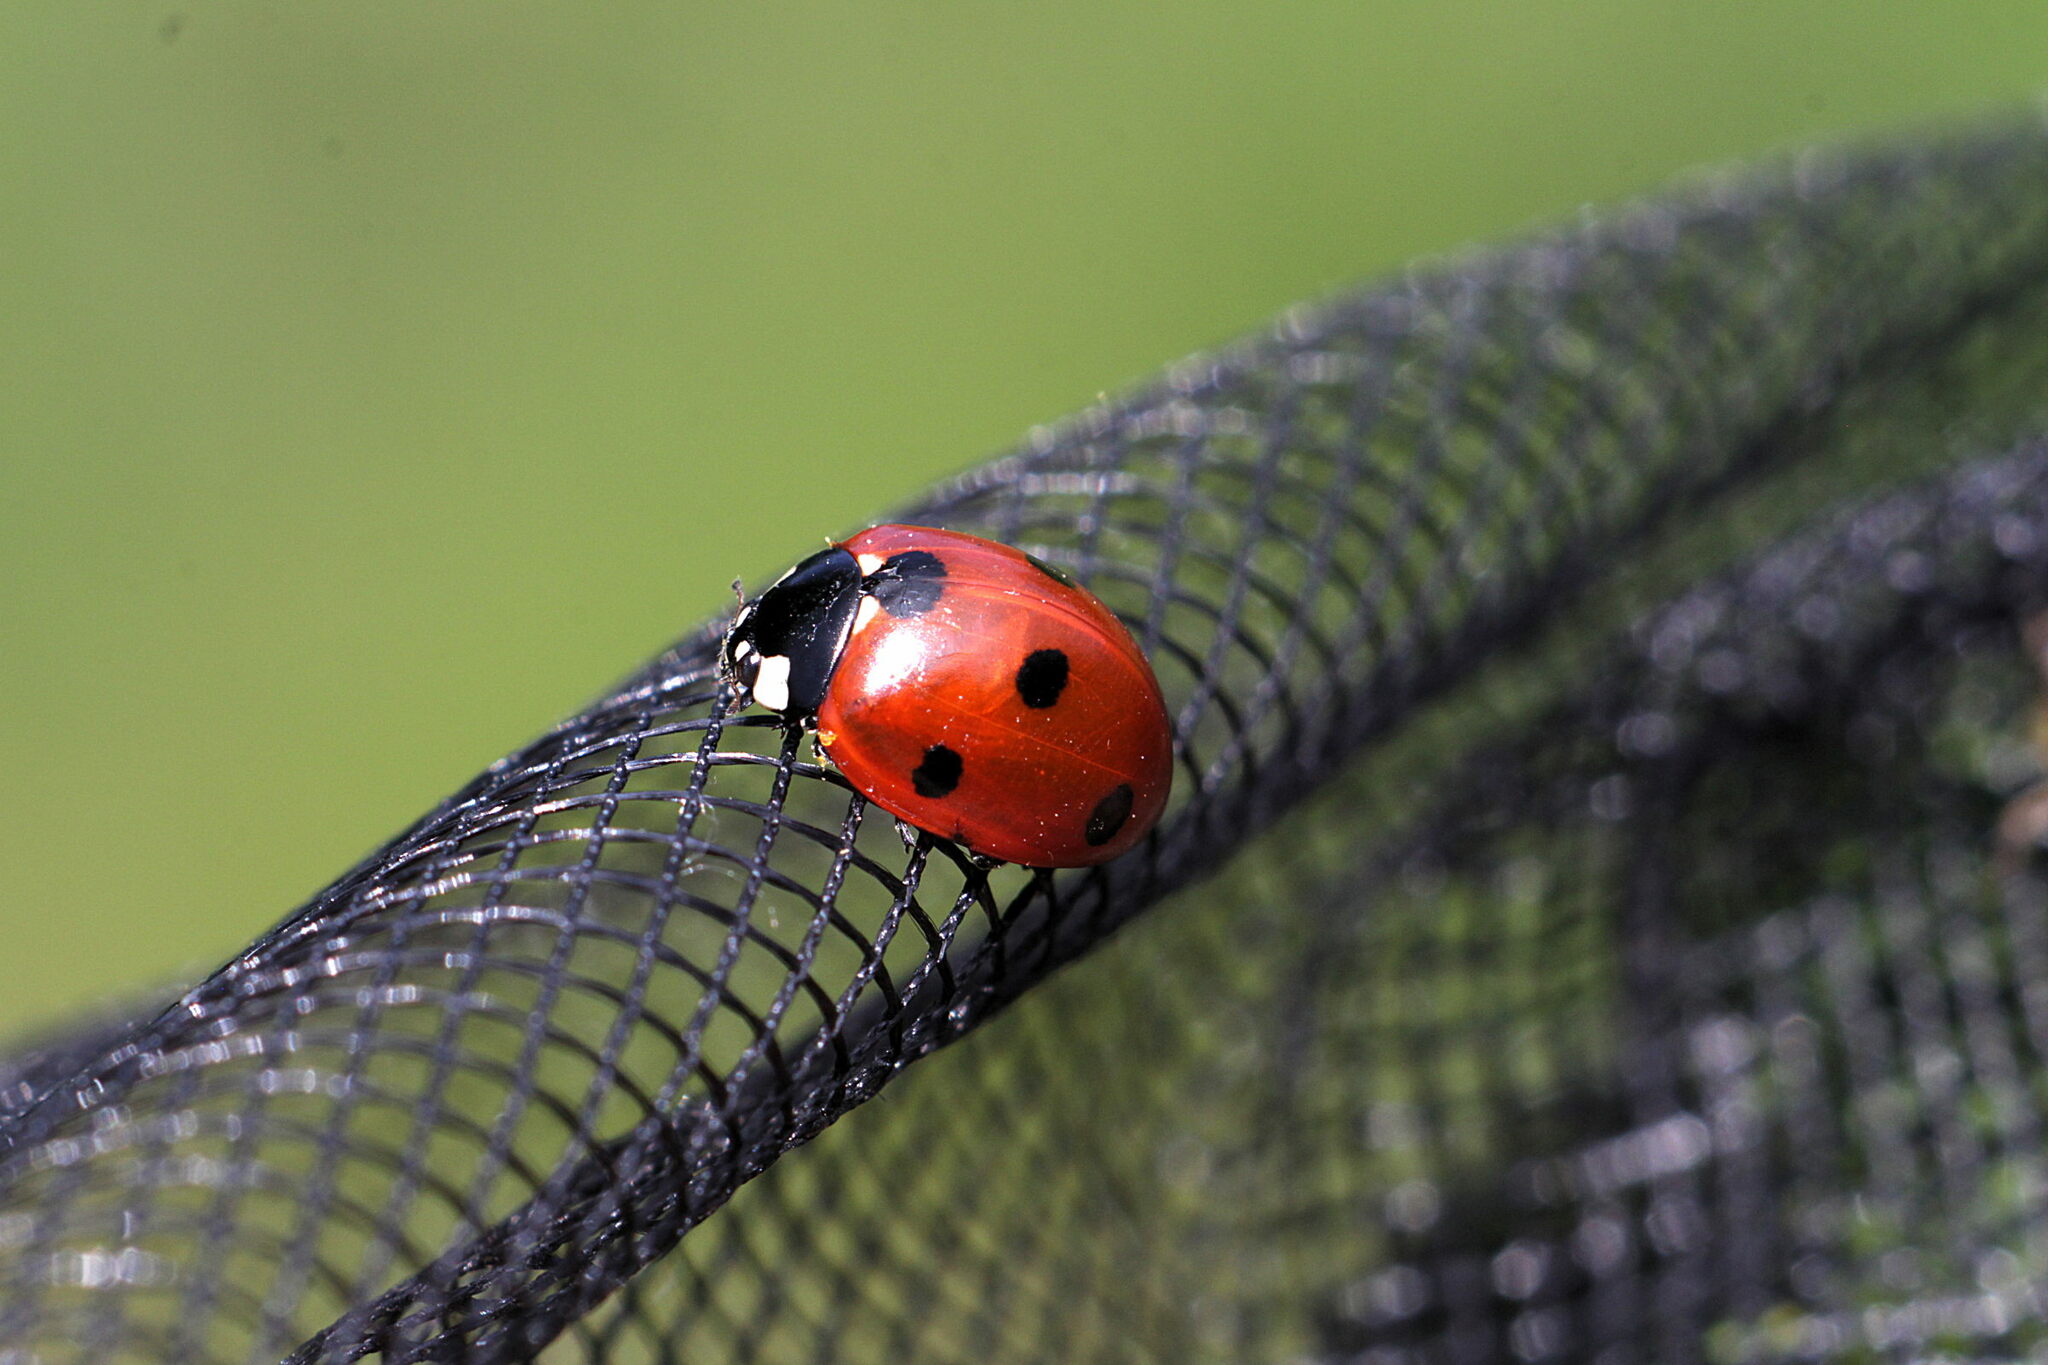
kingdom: Animalia
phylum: Arthropoda
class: Insecta
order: Coleoptera
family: Coccinellidae
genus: Coccinella
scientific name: Coccinella septempunctata
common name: Sevenspotted lady beetle
